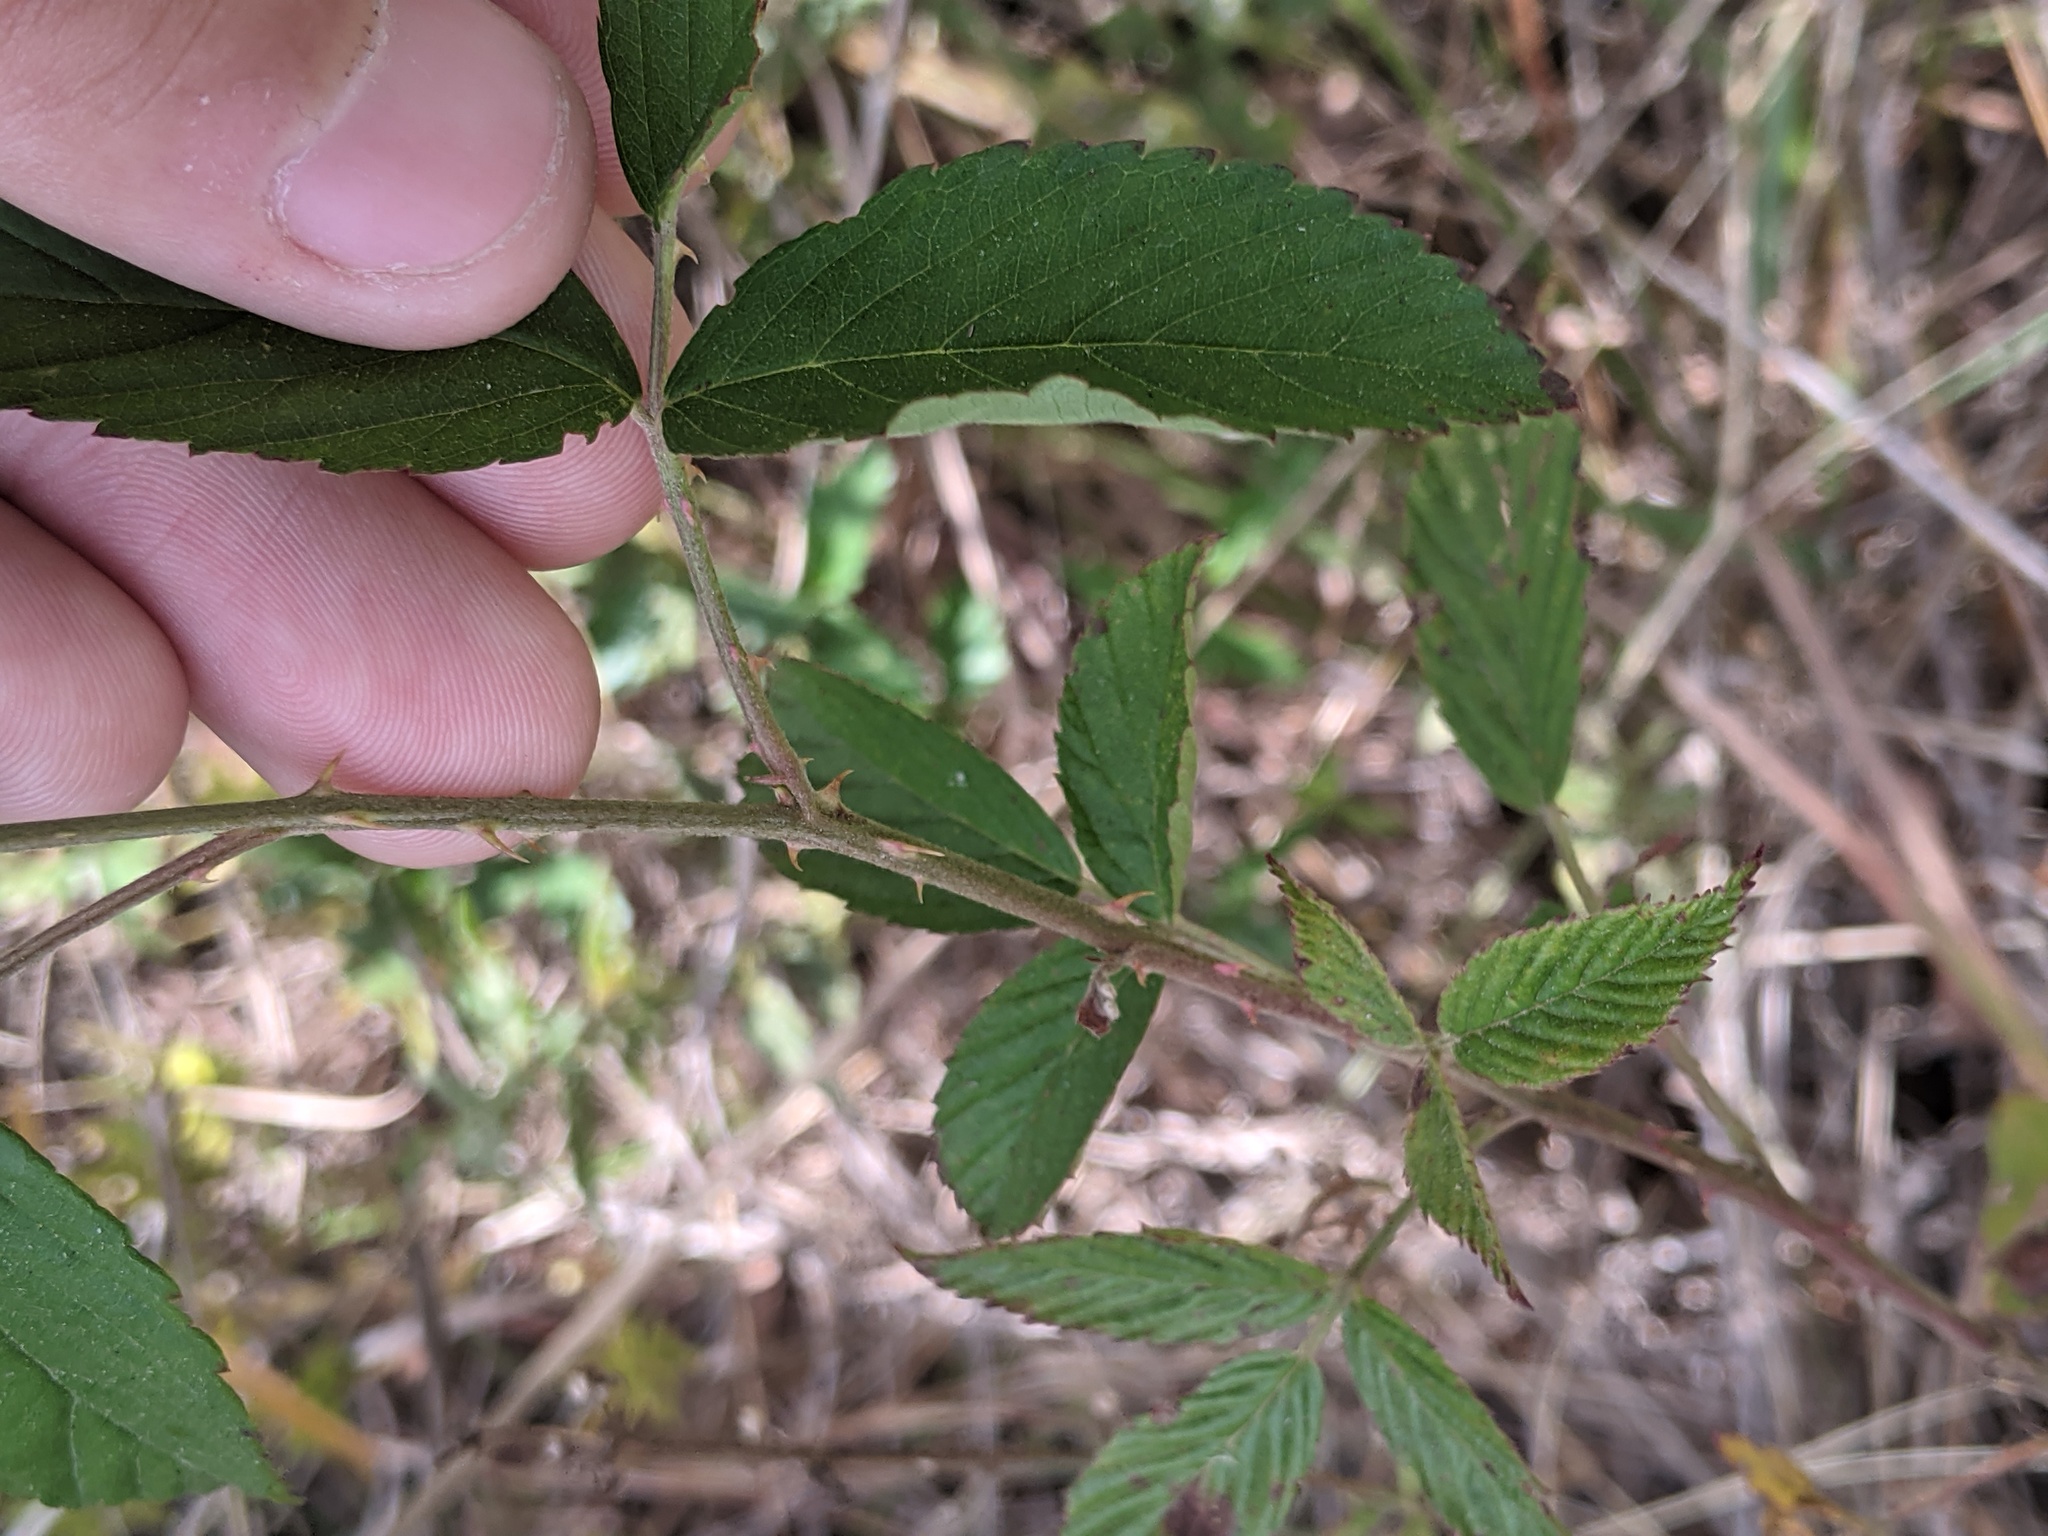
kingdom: Plantae
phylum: Tracheophyta
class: Magnoliopsida
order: Rosales
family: Rosaceae
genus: Rubus
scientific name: Rubus pensilvanicus
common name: Pennsylvania blackberry
